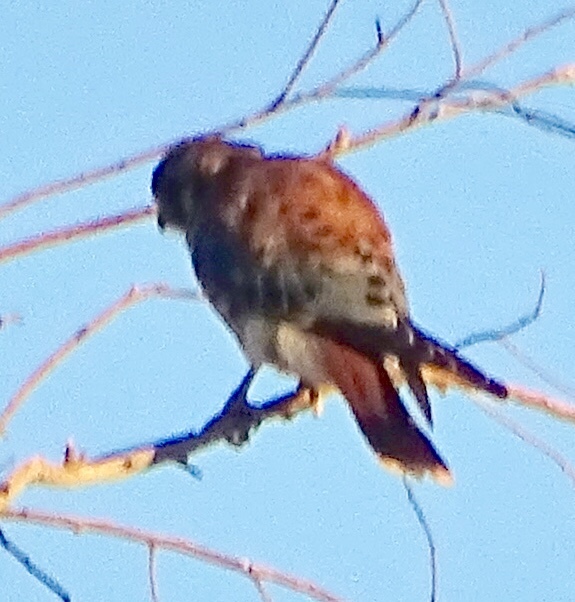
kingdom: Animalia
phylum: Chordata
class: Aves
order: Falconiformes
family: Falconidae
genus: Falco
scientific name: Falco sparverius
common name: American kestrel
